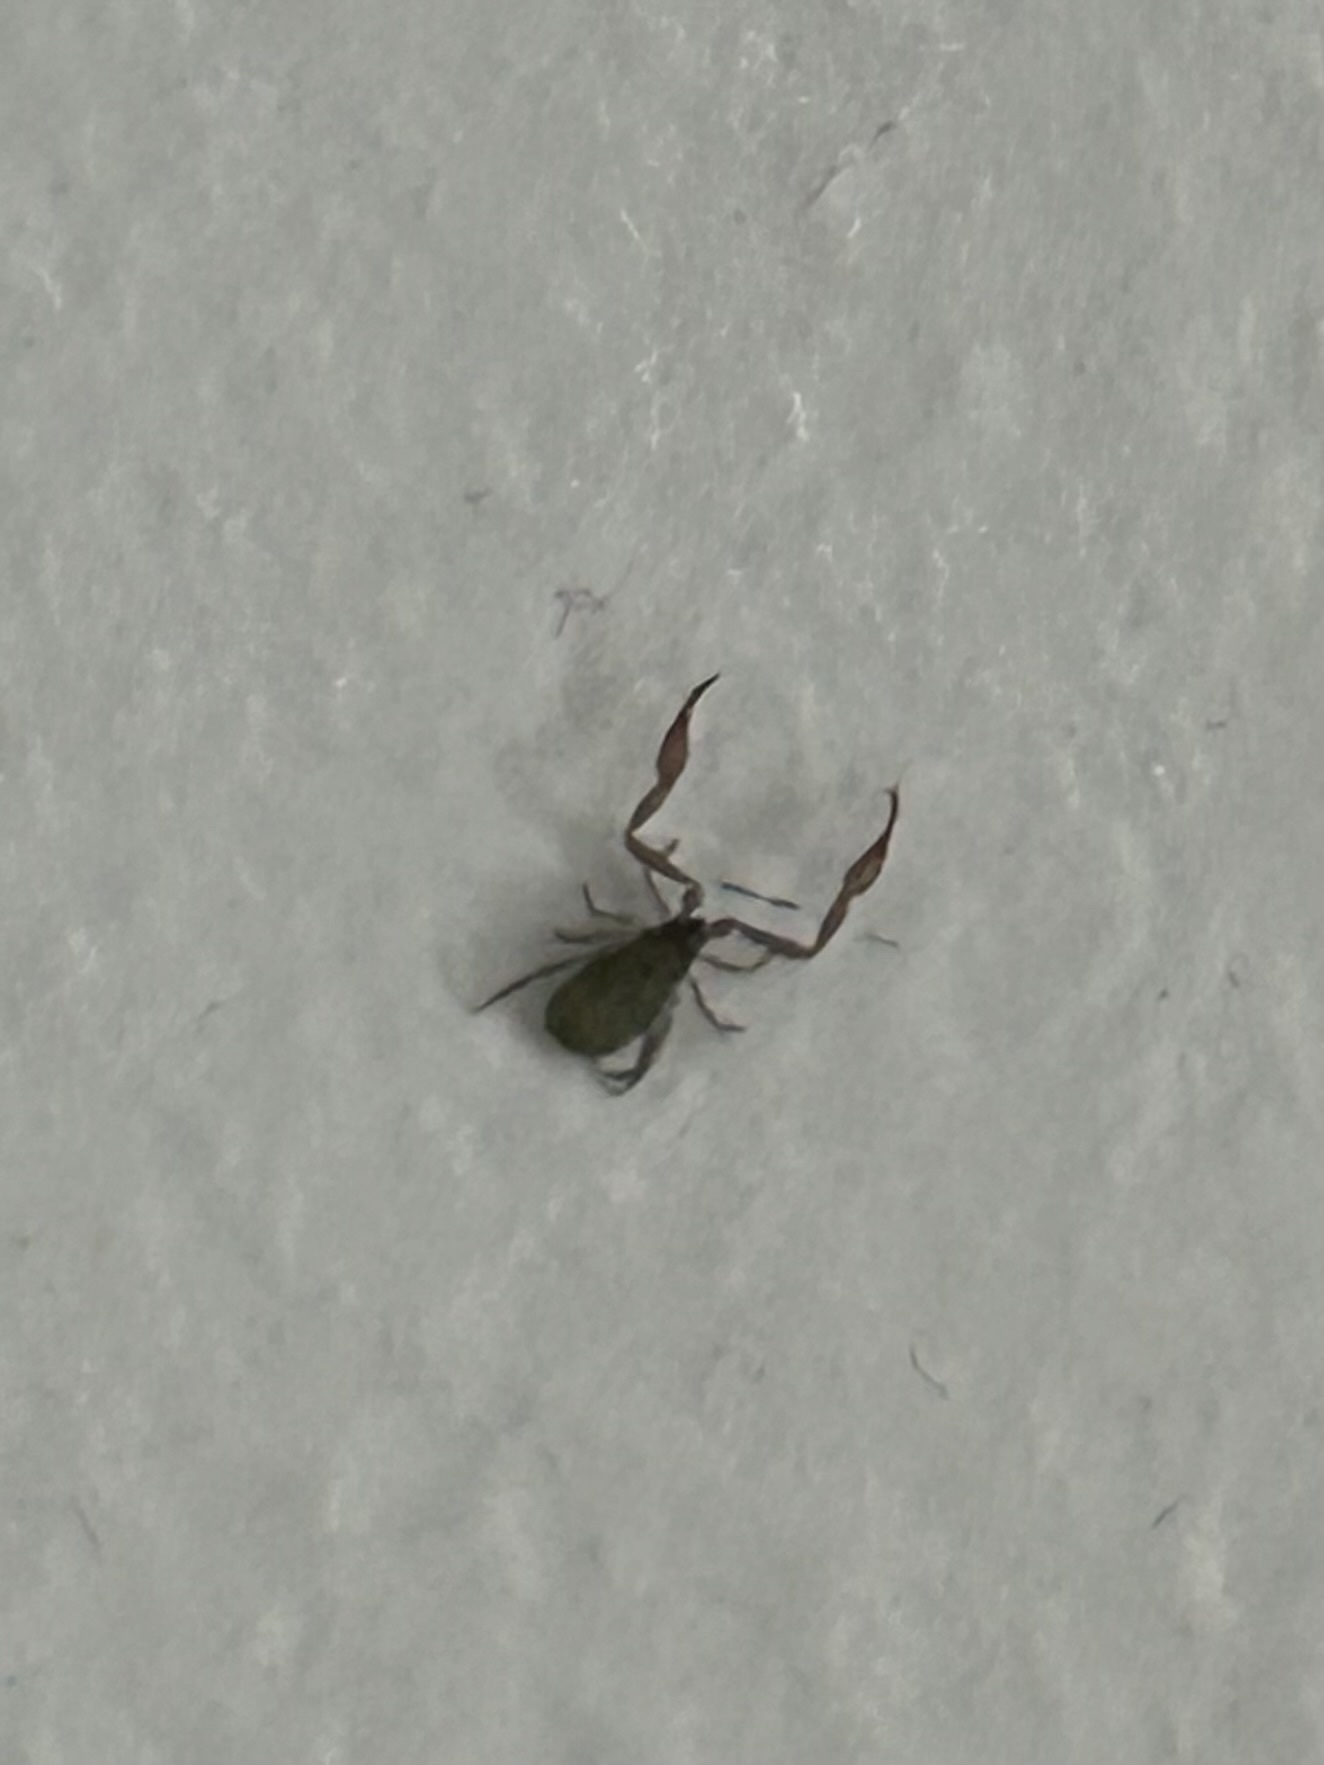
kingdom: Animalia
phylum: Arthropoda
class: Arachnida
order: Pseudoscorpiones
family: Cheliferidae
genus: Chelifer
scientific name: Chelifer cancroides
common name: House false-scorpion
